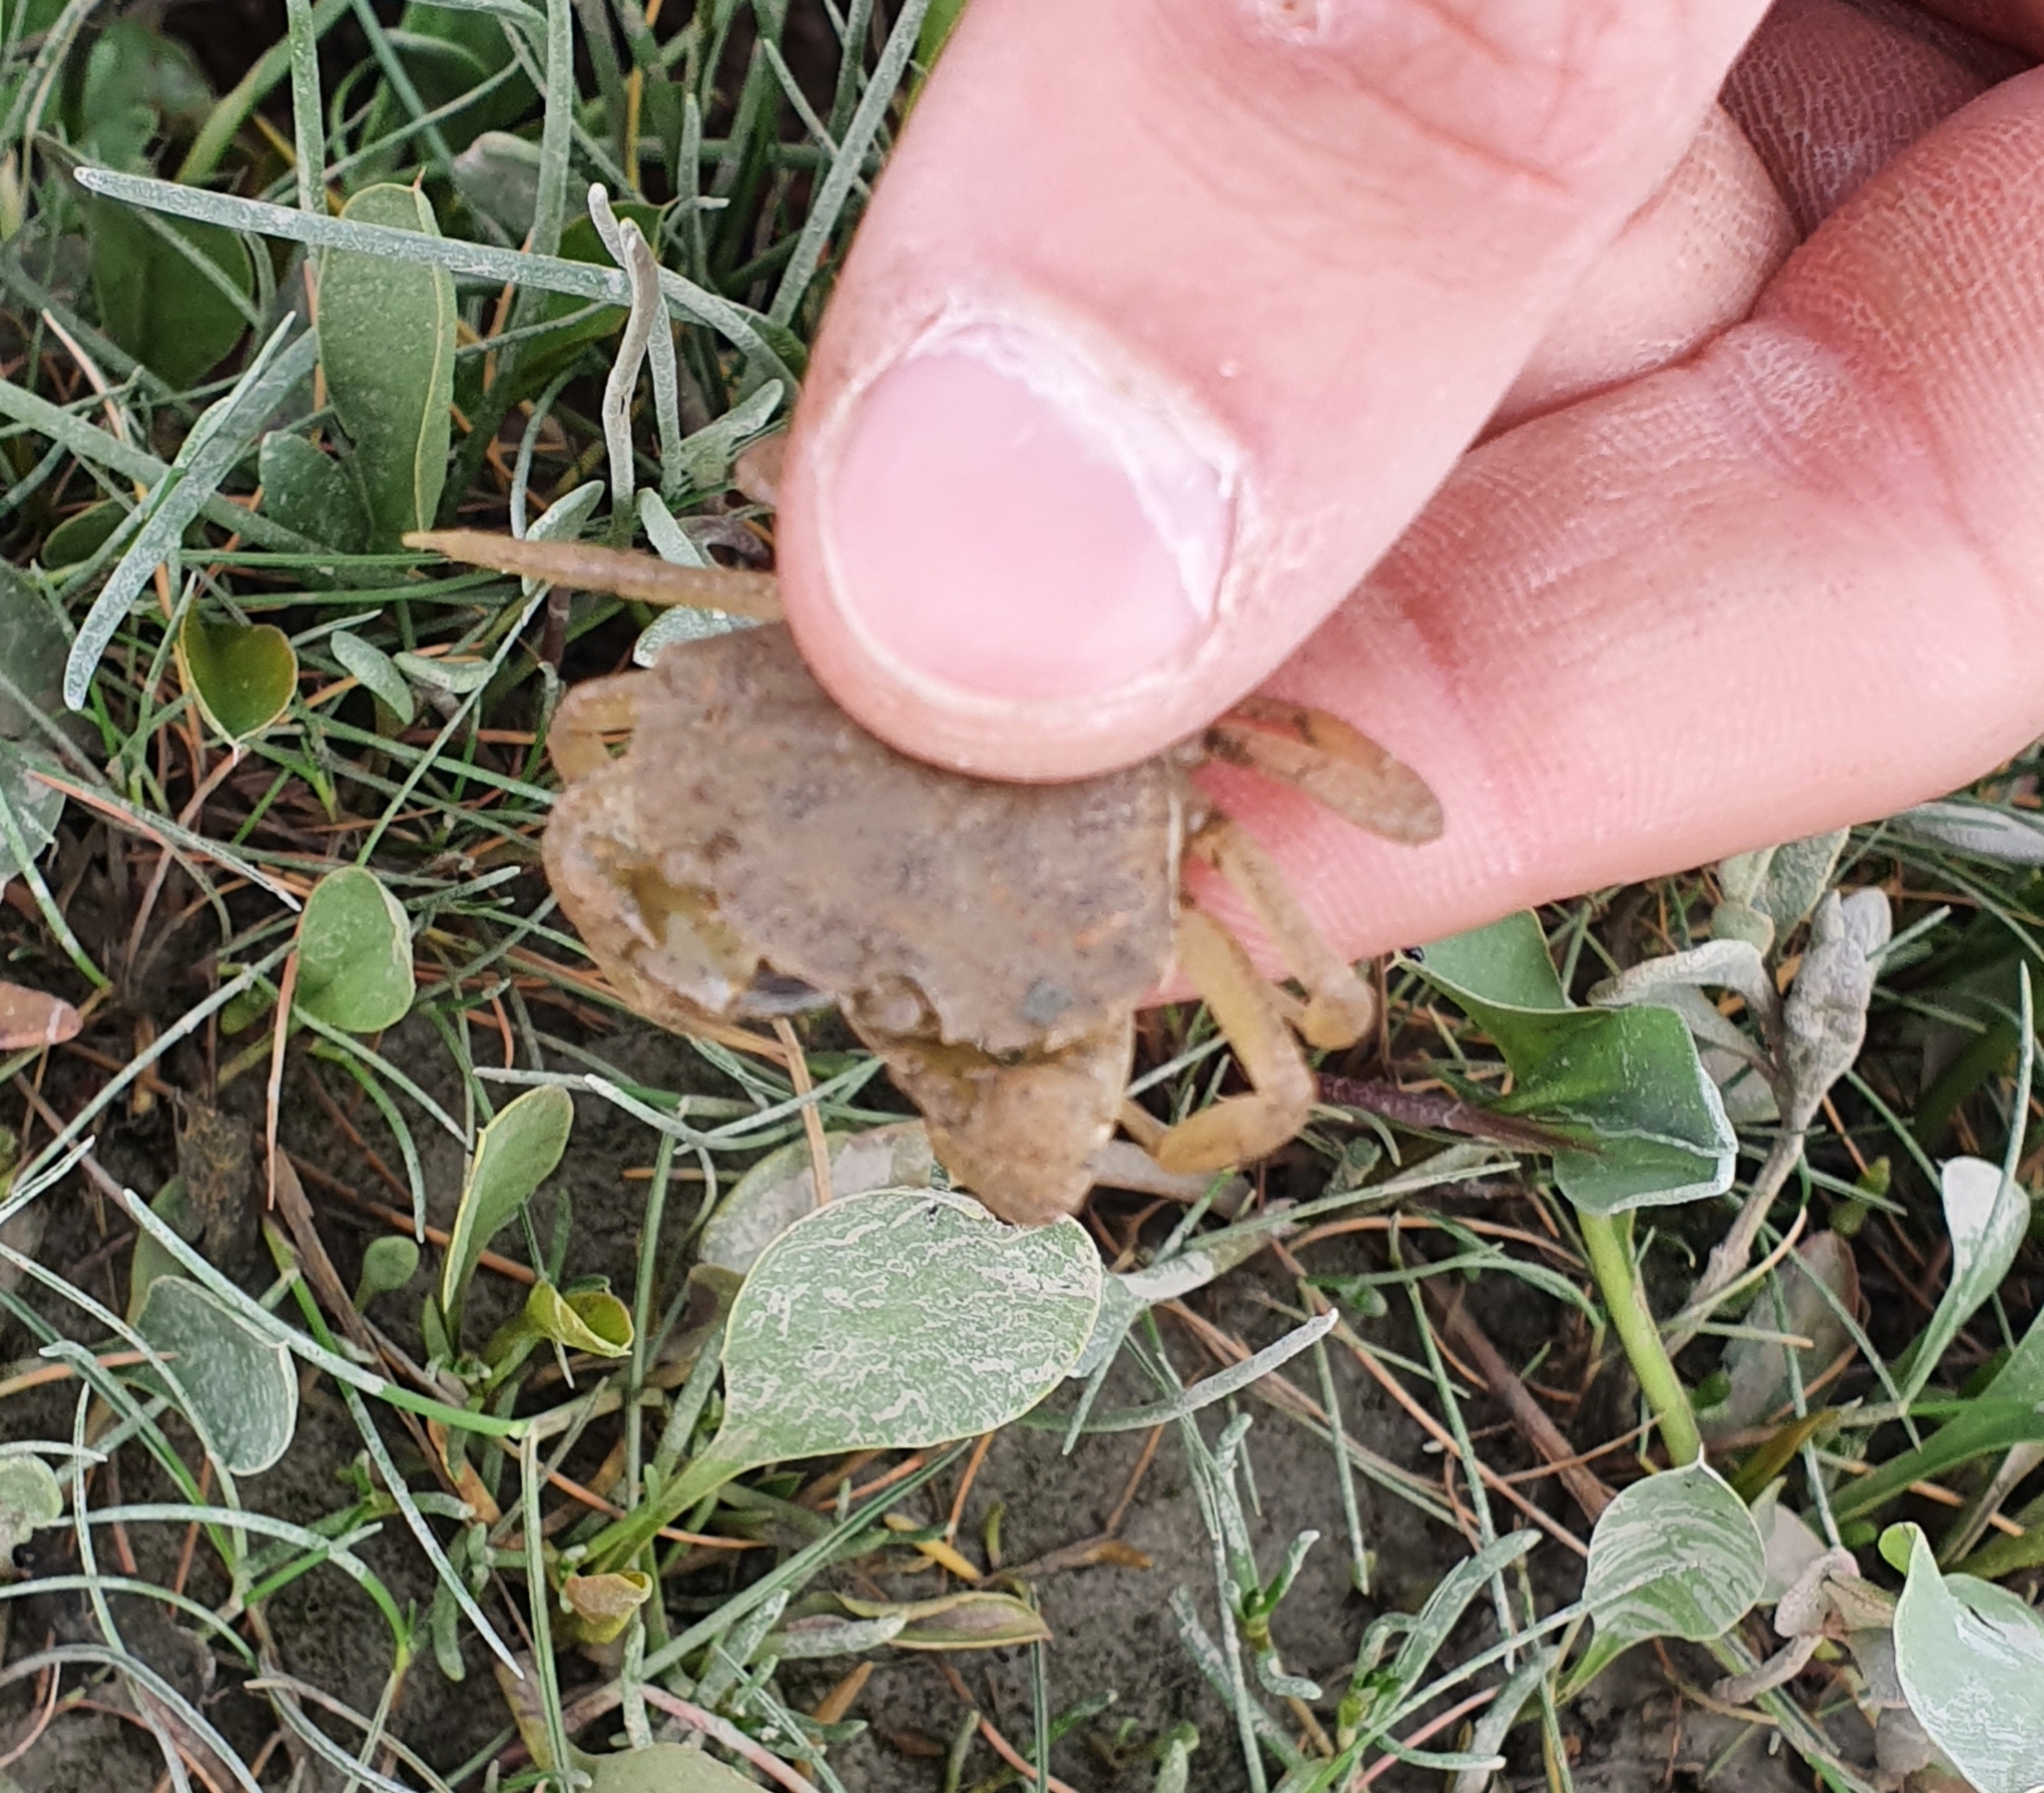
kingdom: Animalia
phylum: Arthropoda
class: Malacostraca
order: Decapoda
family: Carcinidae
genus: Carcinus
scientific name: Carcinus maenas
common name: European green crab
